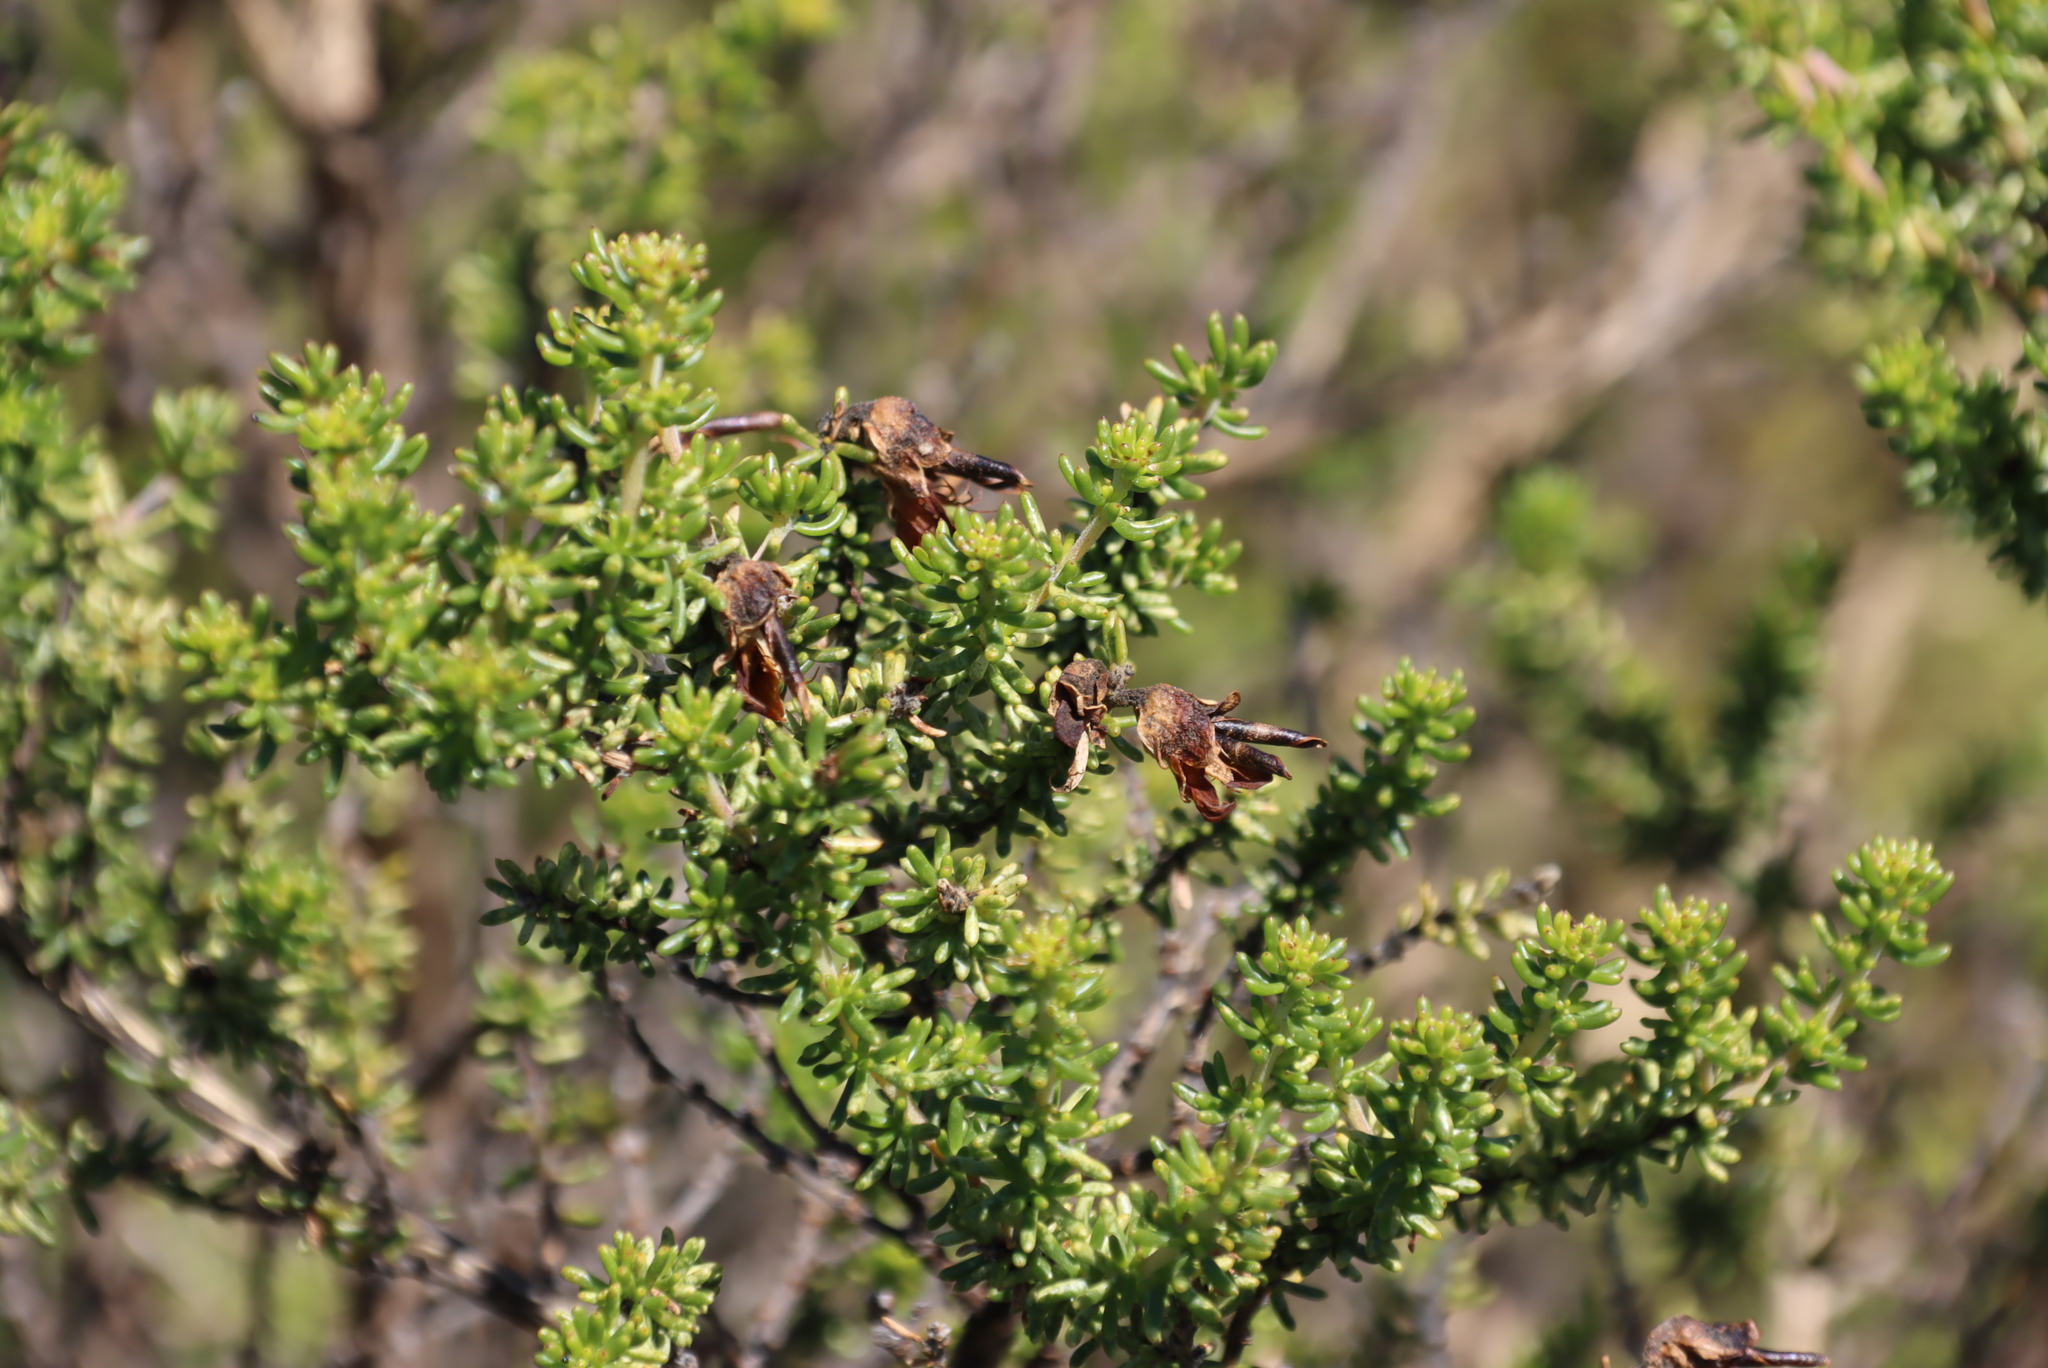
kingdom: Plantae
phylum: Tracheophyta
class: Magnoliopsida
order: Fabales
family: Fabaceae
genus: Aspalathus
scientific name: Aspalathus carnosa
